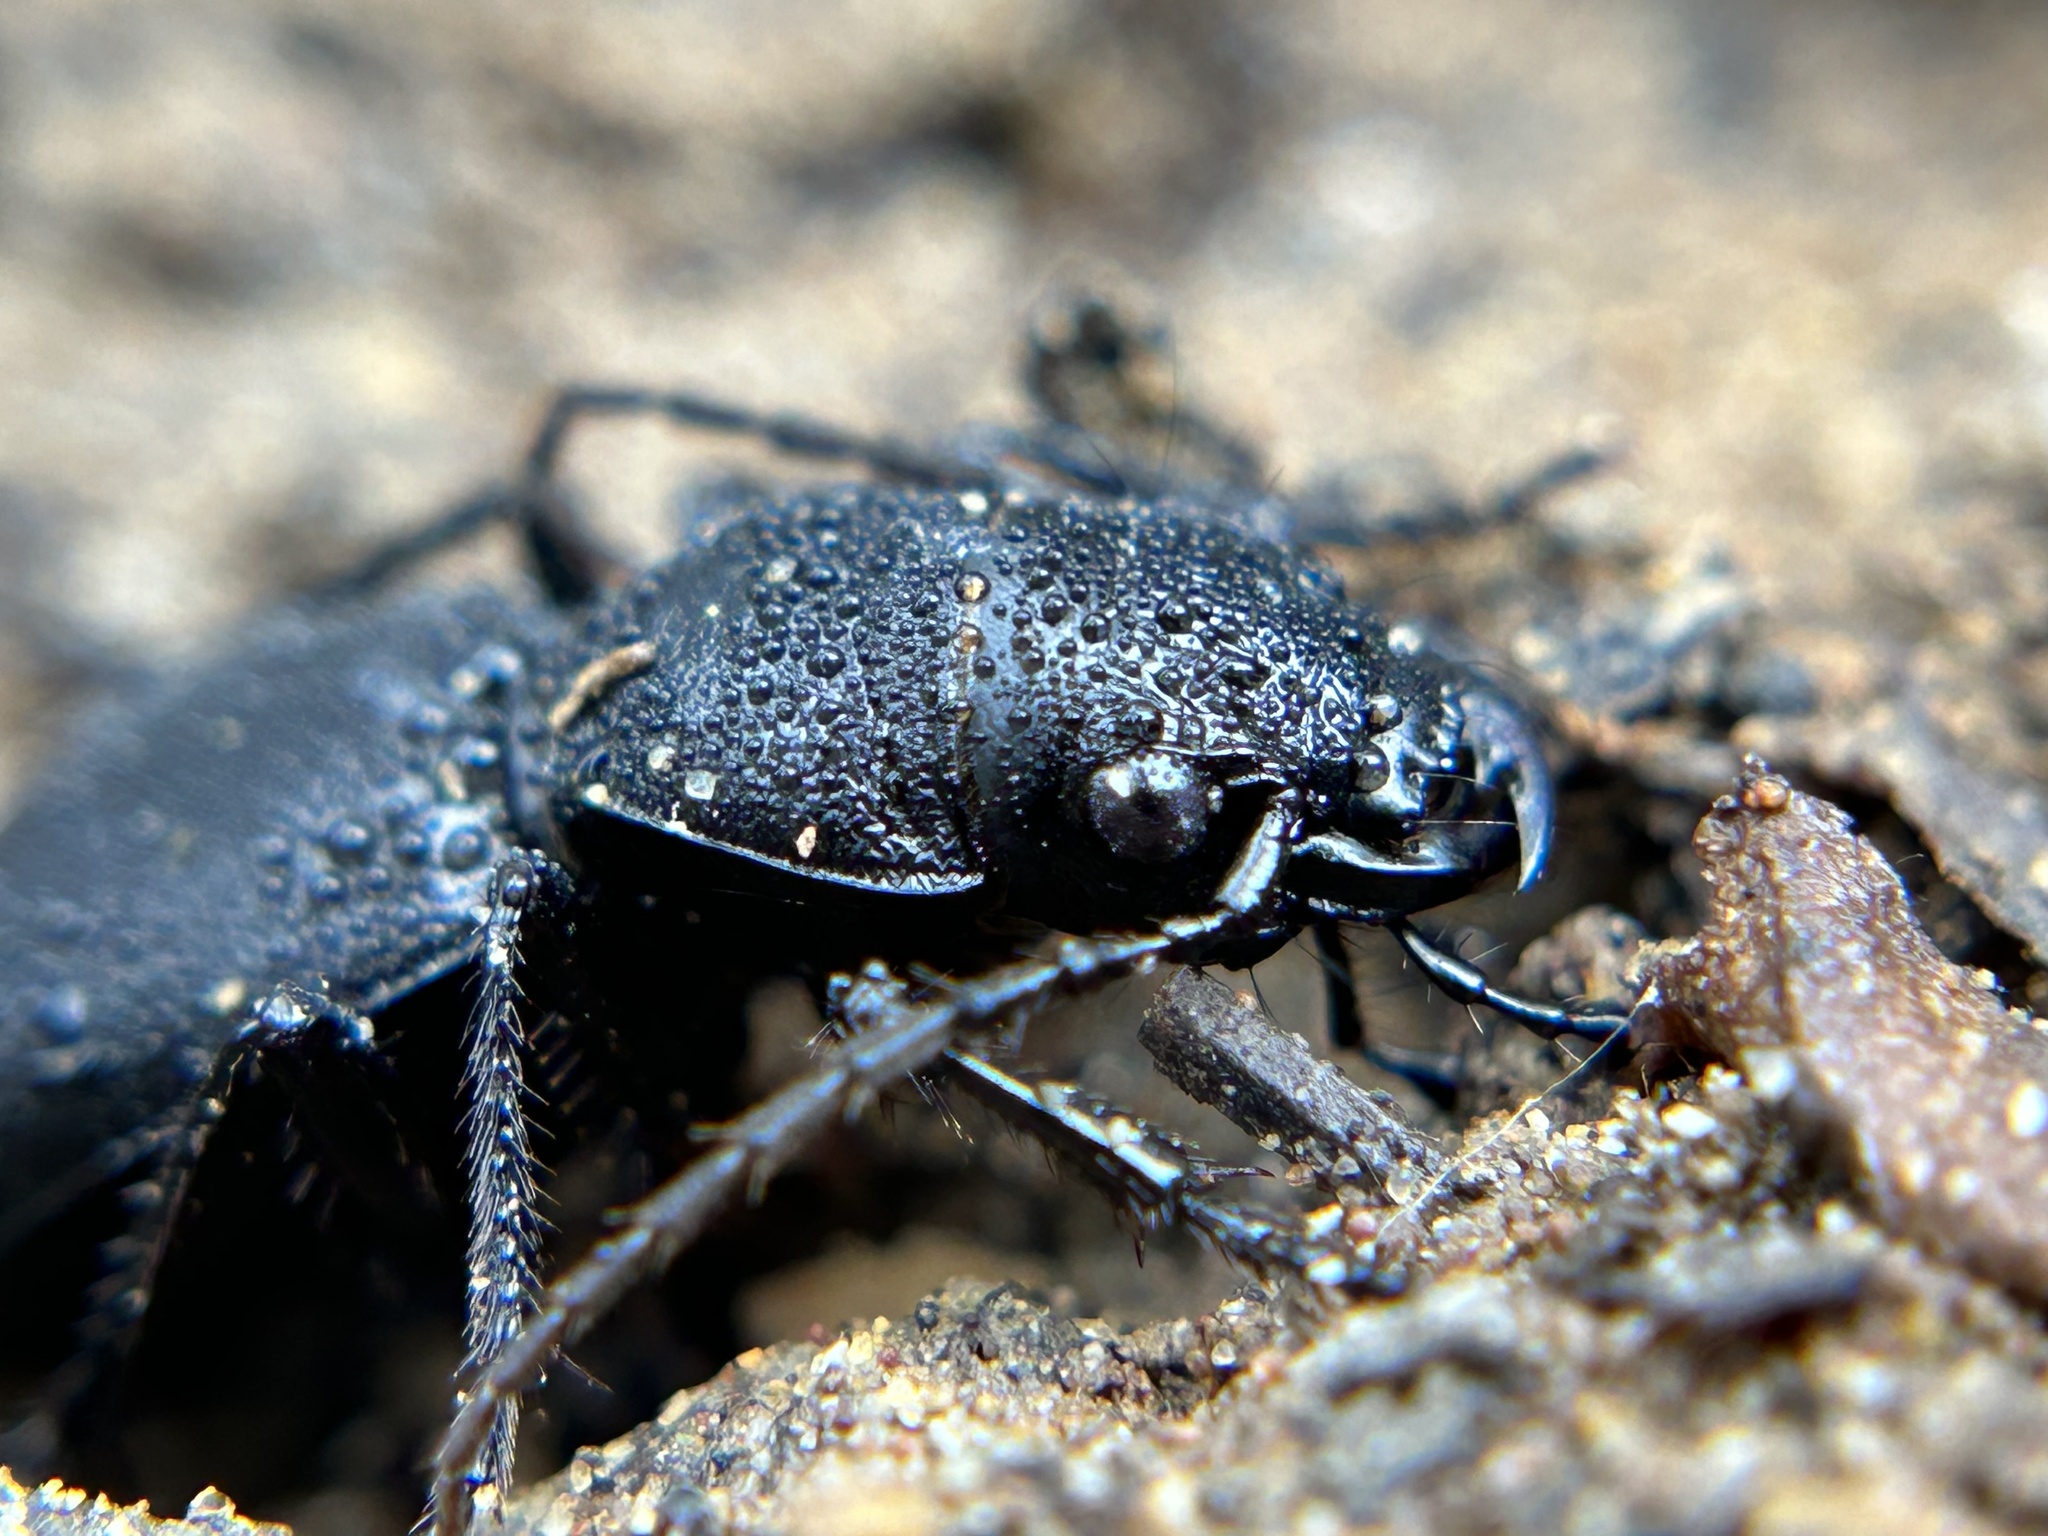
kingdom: Animalia
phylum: Arthropoda
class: Insecta
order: Coleoptera
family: Carabidae
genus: Omus
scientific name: Omus californicus
